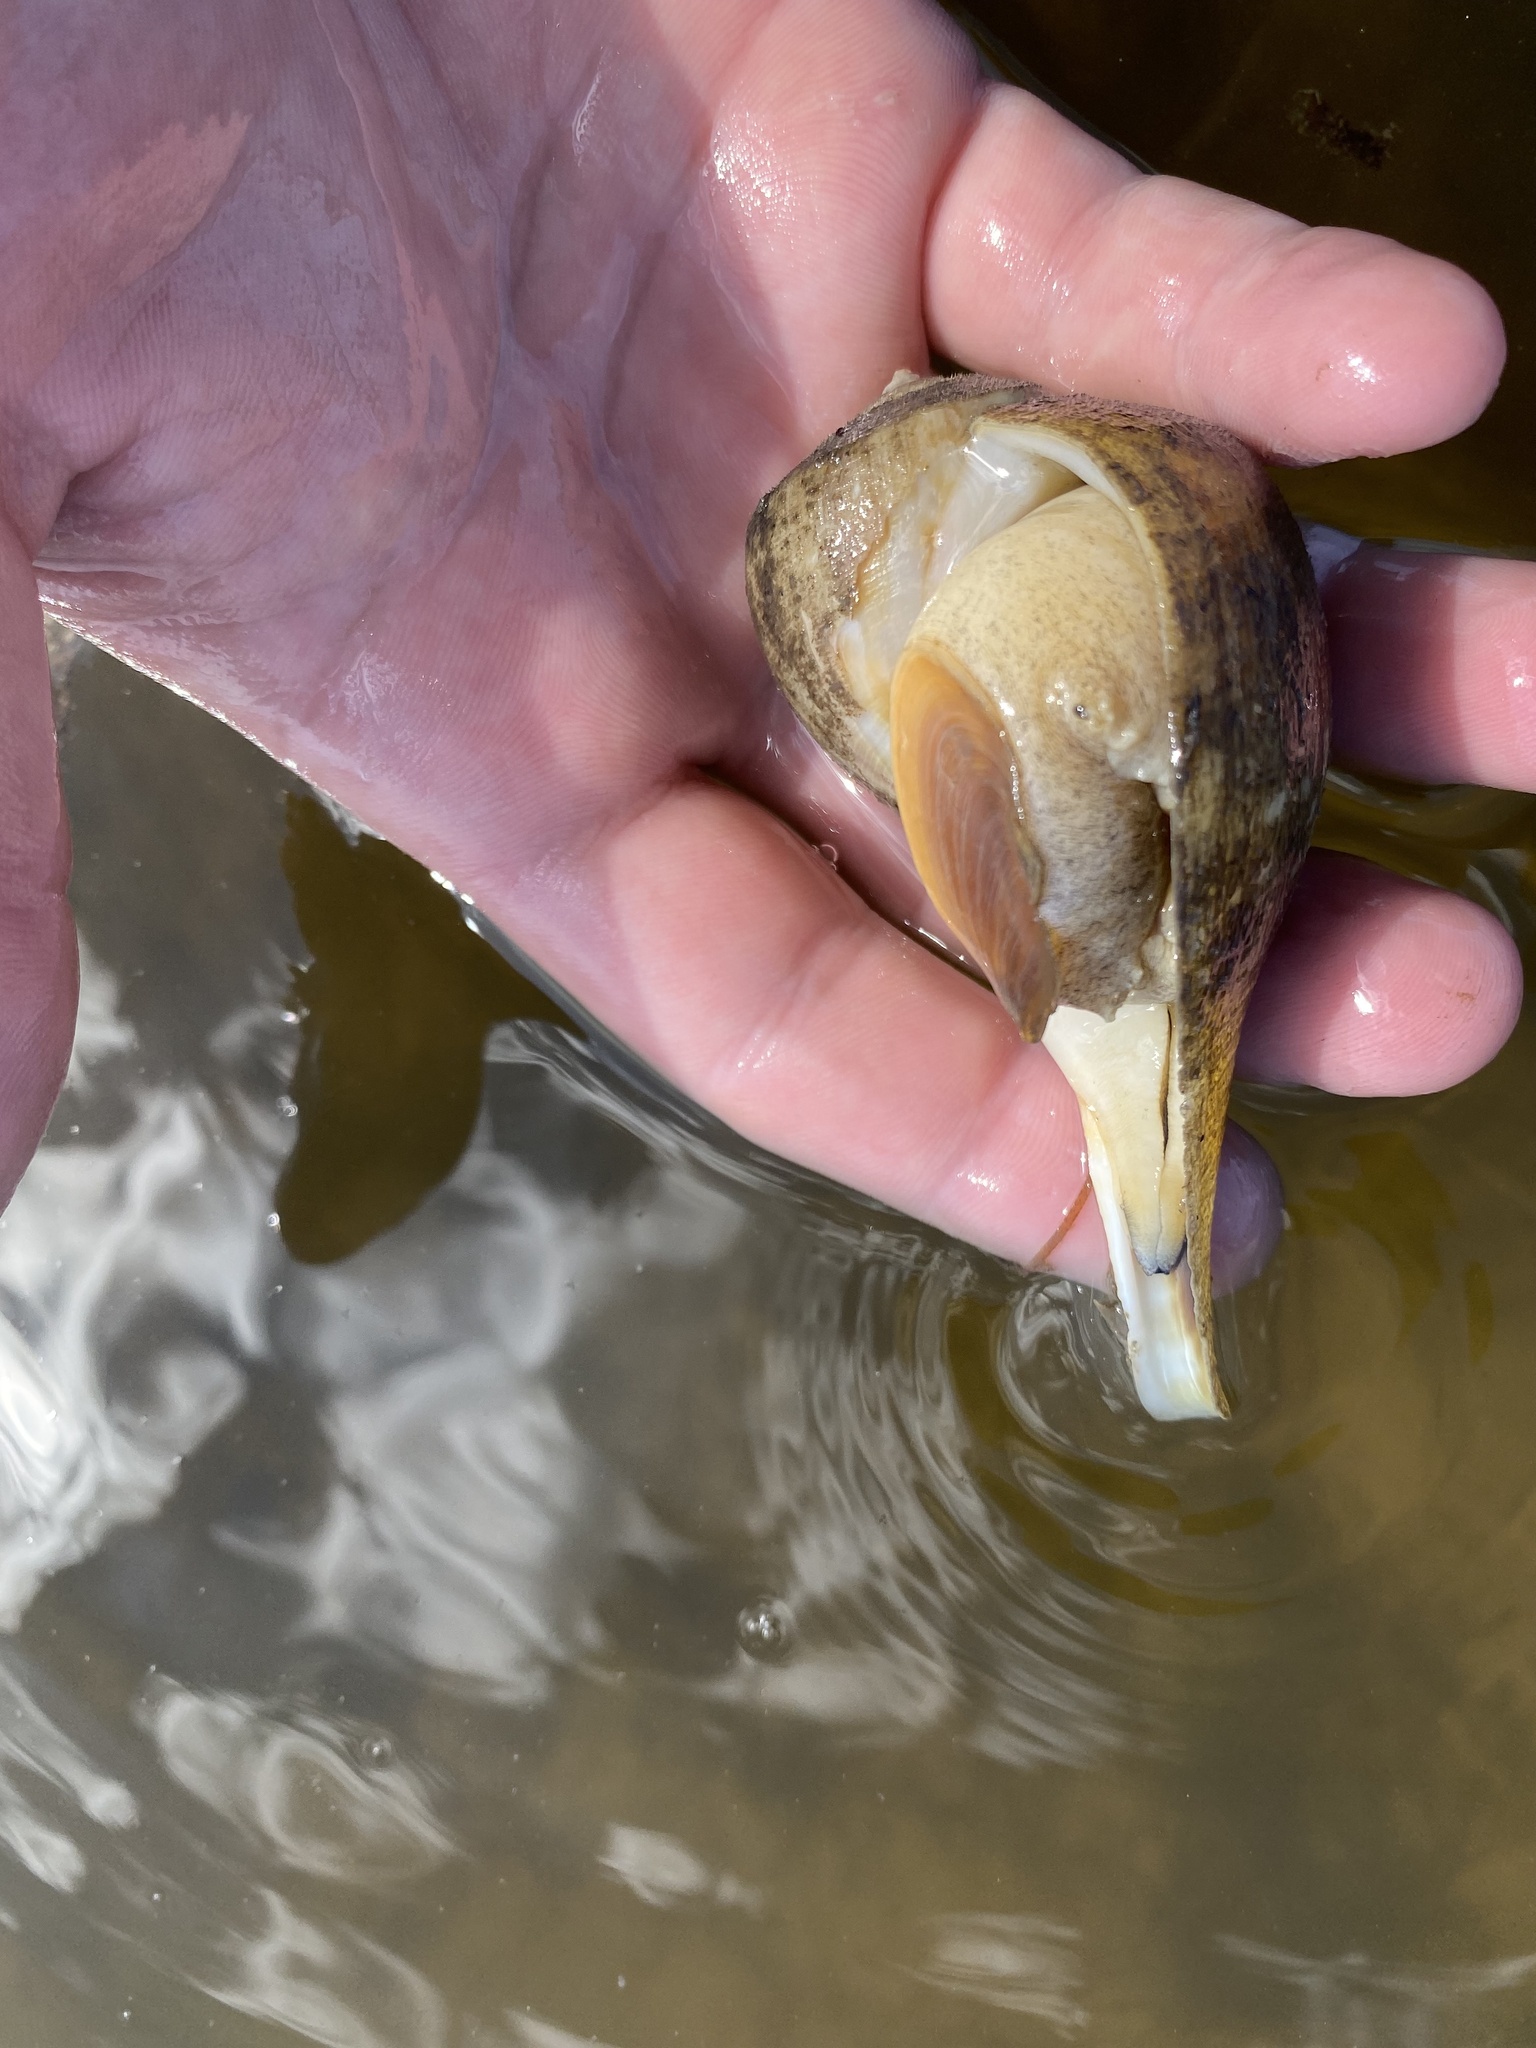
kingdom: Animalia
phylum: Mollusca
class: Gastropoda
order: Neogastropoda
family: Busyconidae
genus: Fulguropsis
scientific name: Fulguropsis pyruloides
